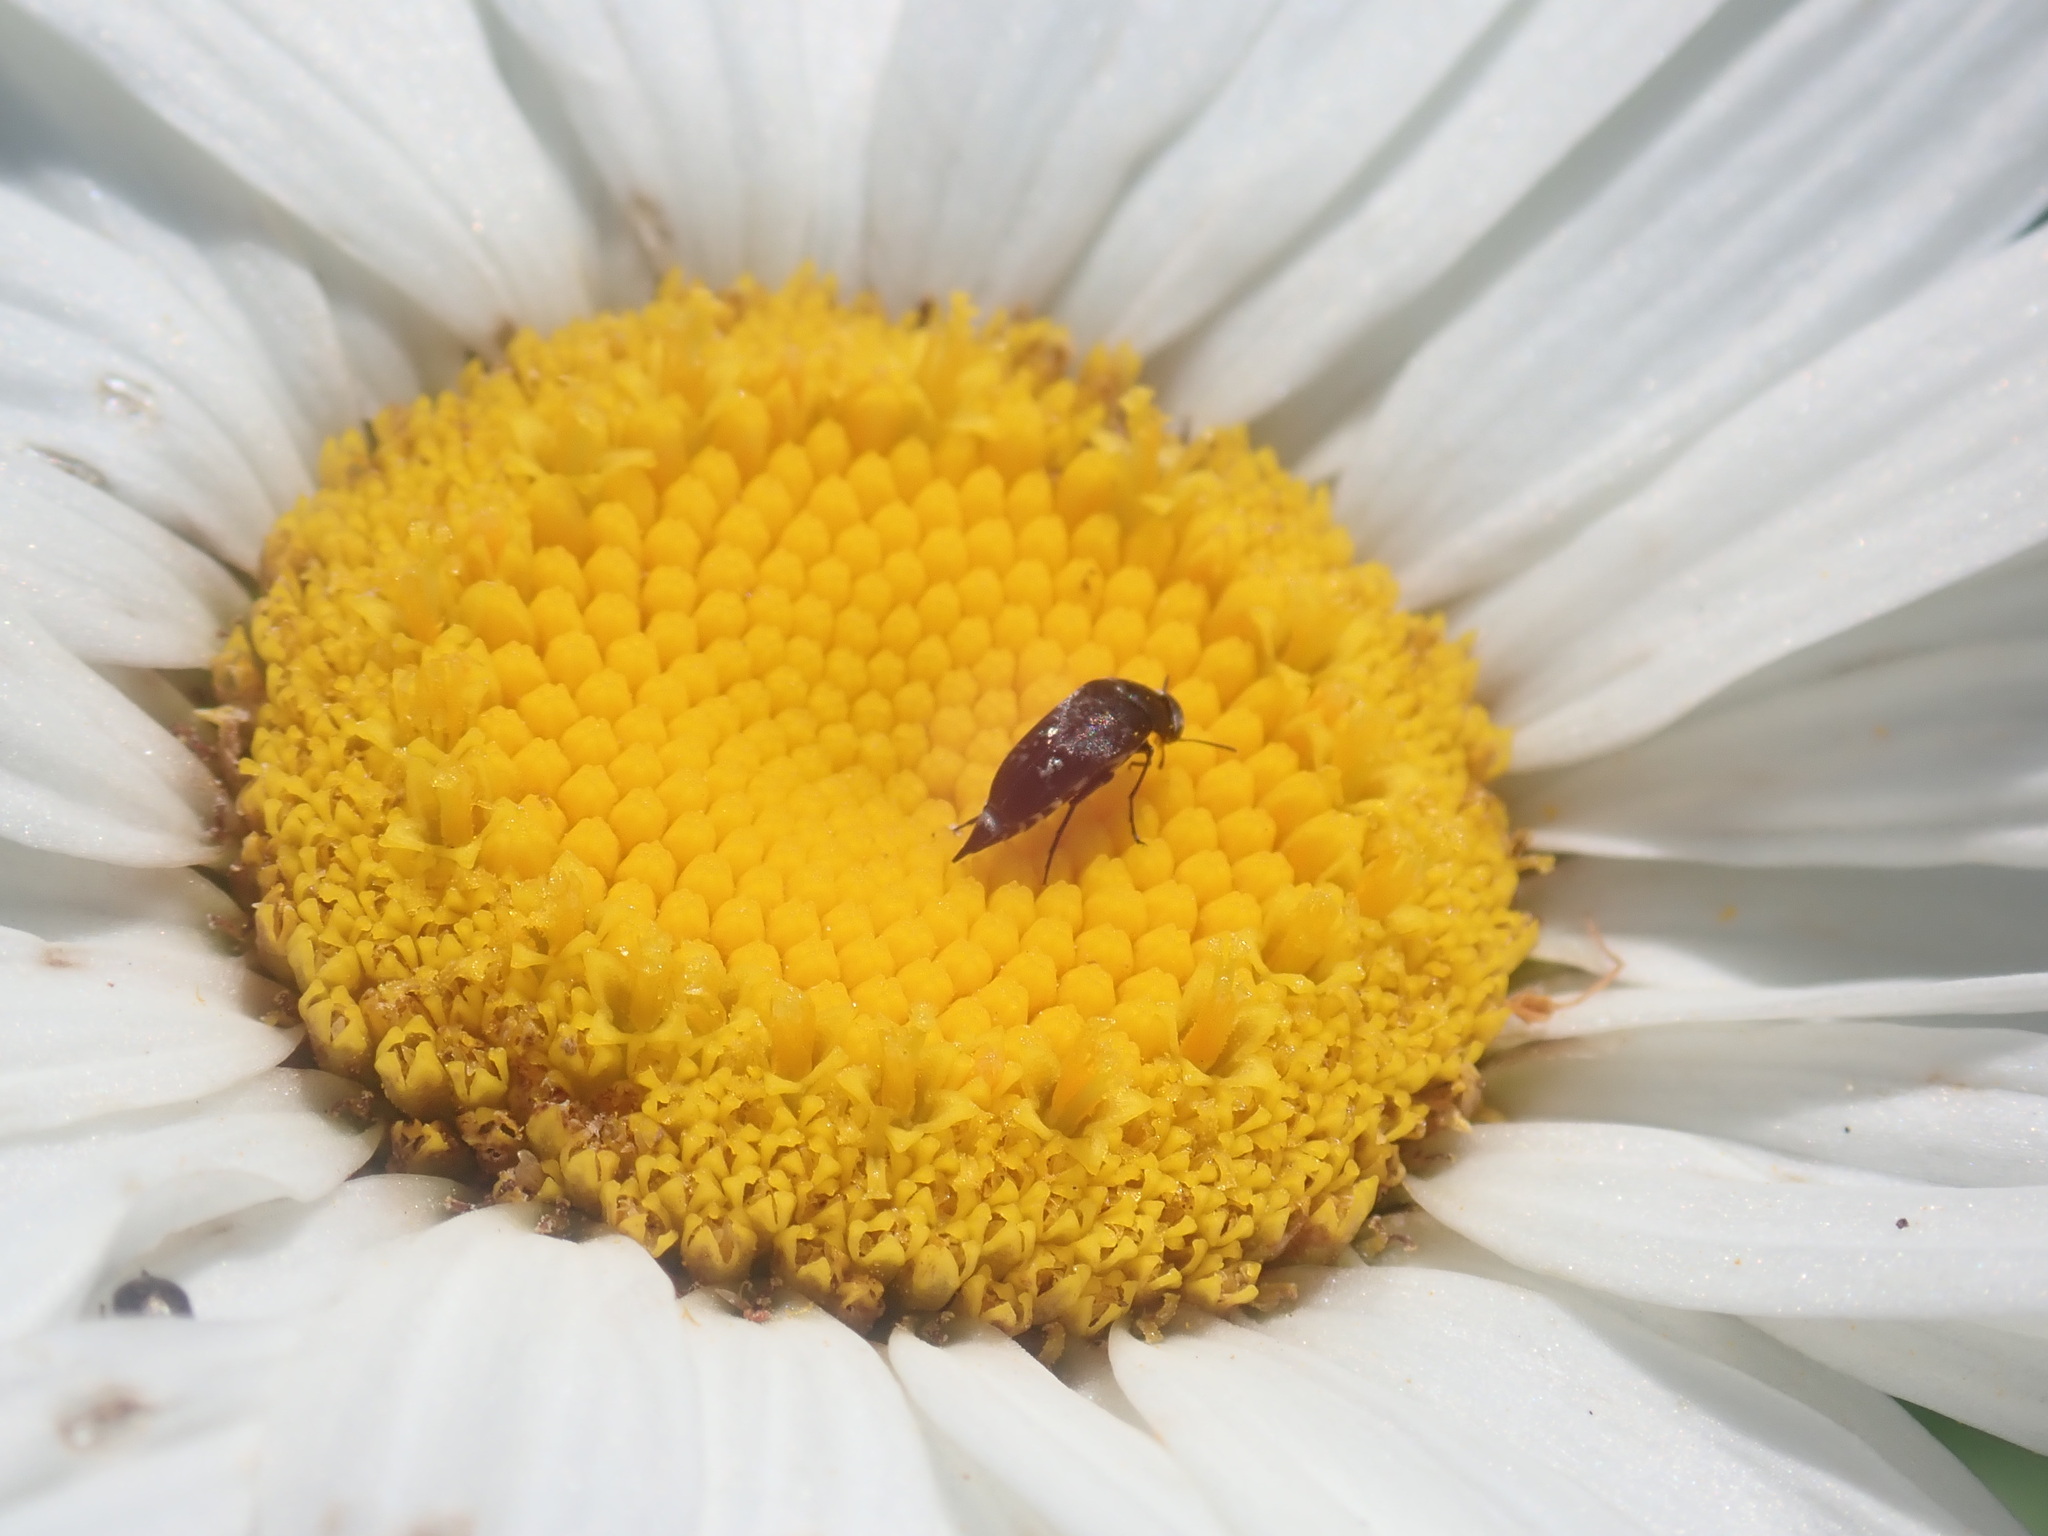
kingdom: Animalia
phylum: Arthropoda
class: Insecta
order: Coleoptera
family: Mordellidae
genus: Mordella
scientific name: Mordella marginata
